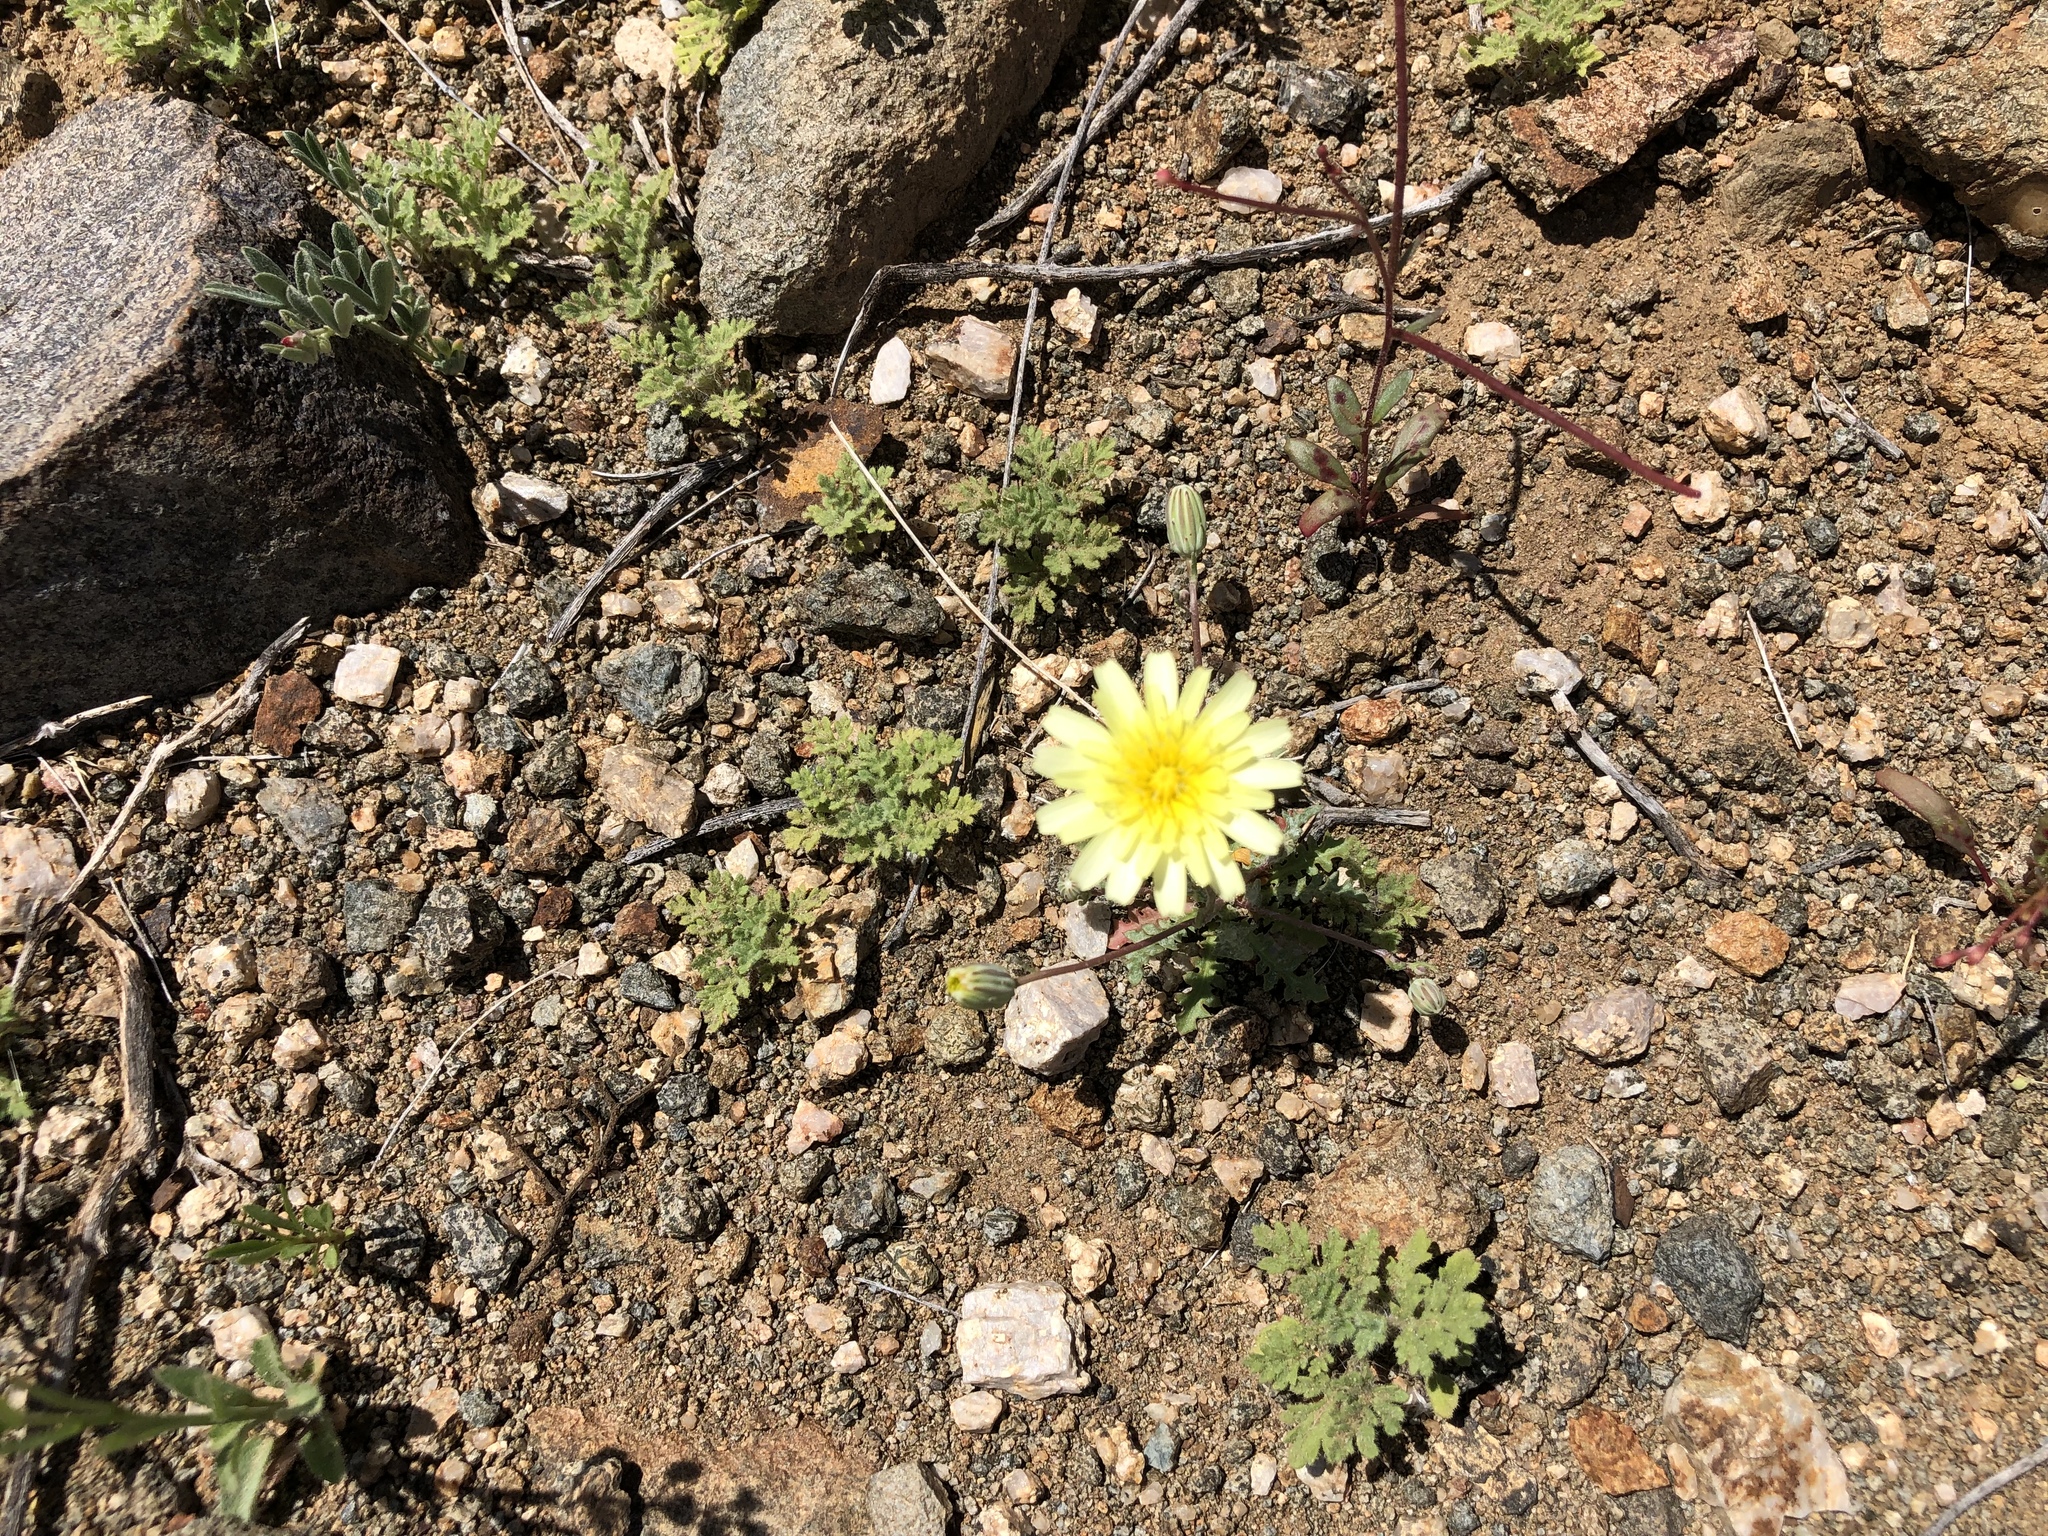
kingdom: Plantae
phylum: Tracheophyta
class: Magnoliopsida
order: Asterales
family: Asteraceae
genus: Malacothrix
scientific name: Malacothrix glabrata
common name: Smooth desert-dandelion
